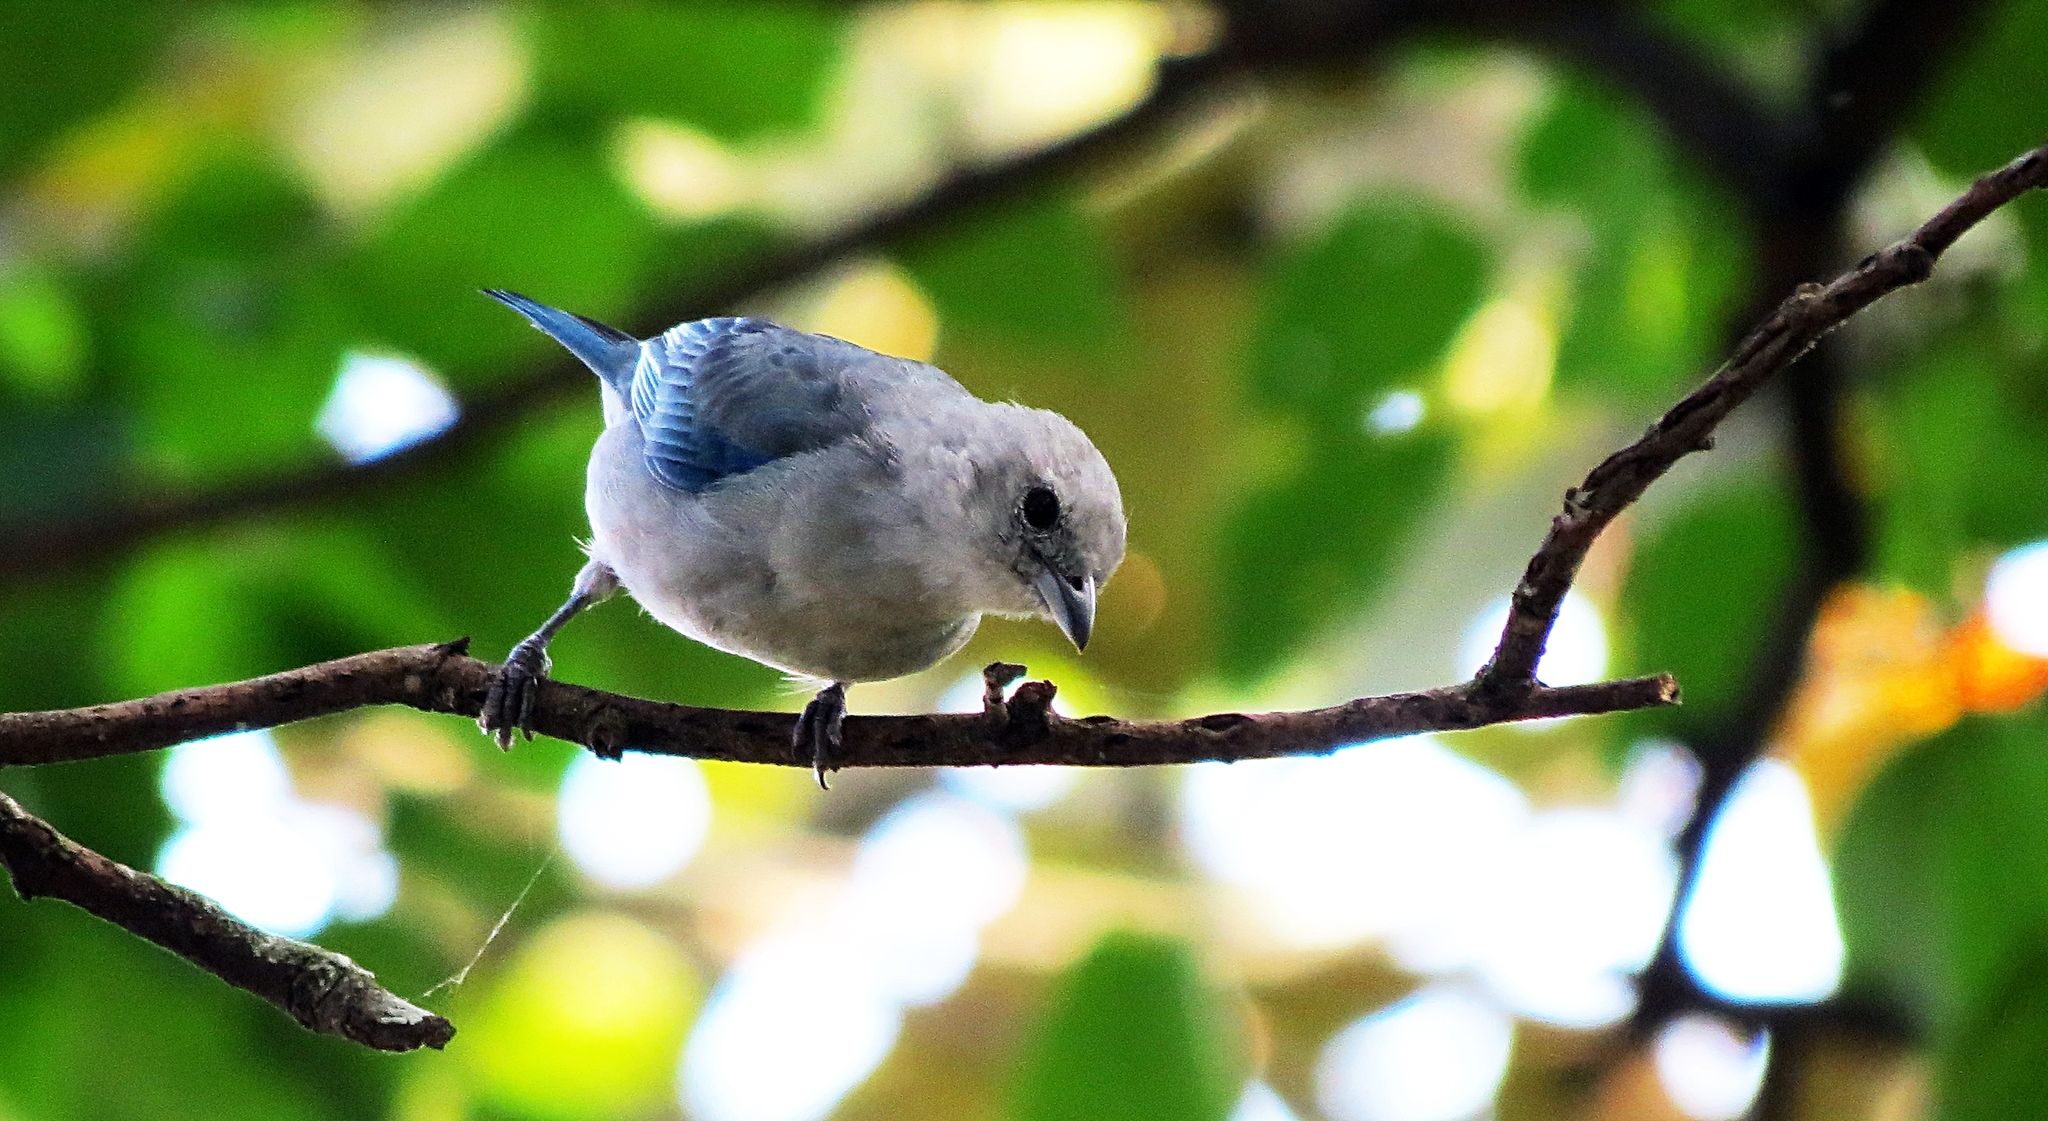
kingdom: Animalia
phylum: Chordata
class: Aves
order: Passeriformes
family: Thraupidae
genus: Thraupis
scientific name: Thraupis episcopus
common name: Blue-grey tanager
